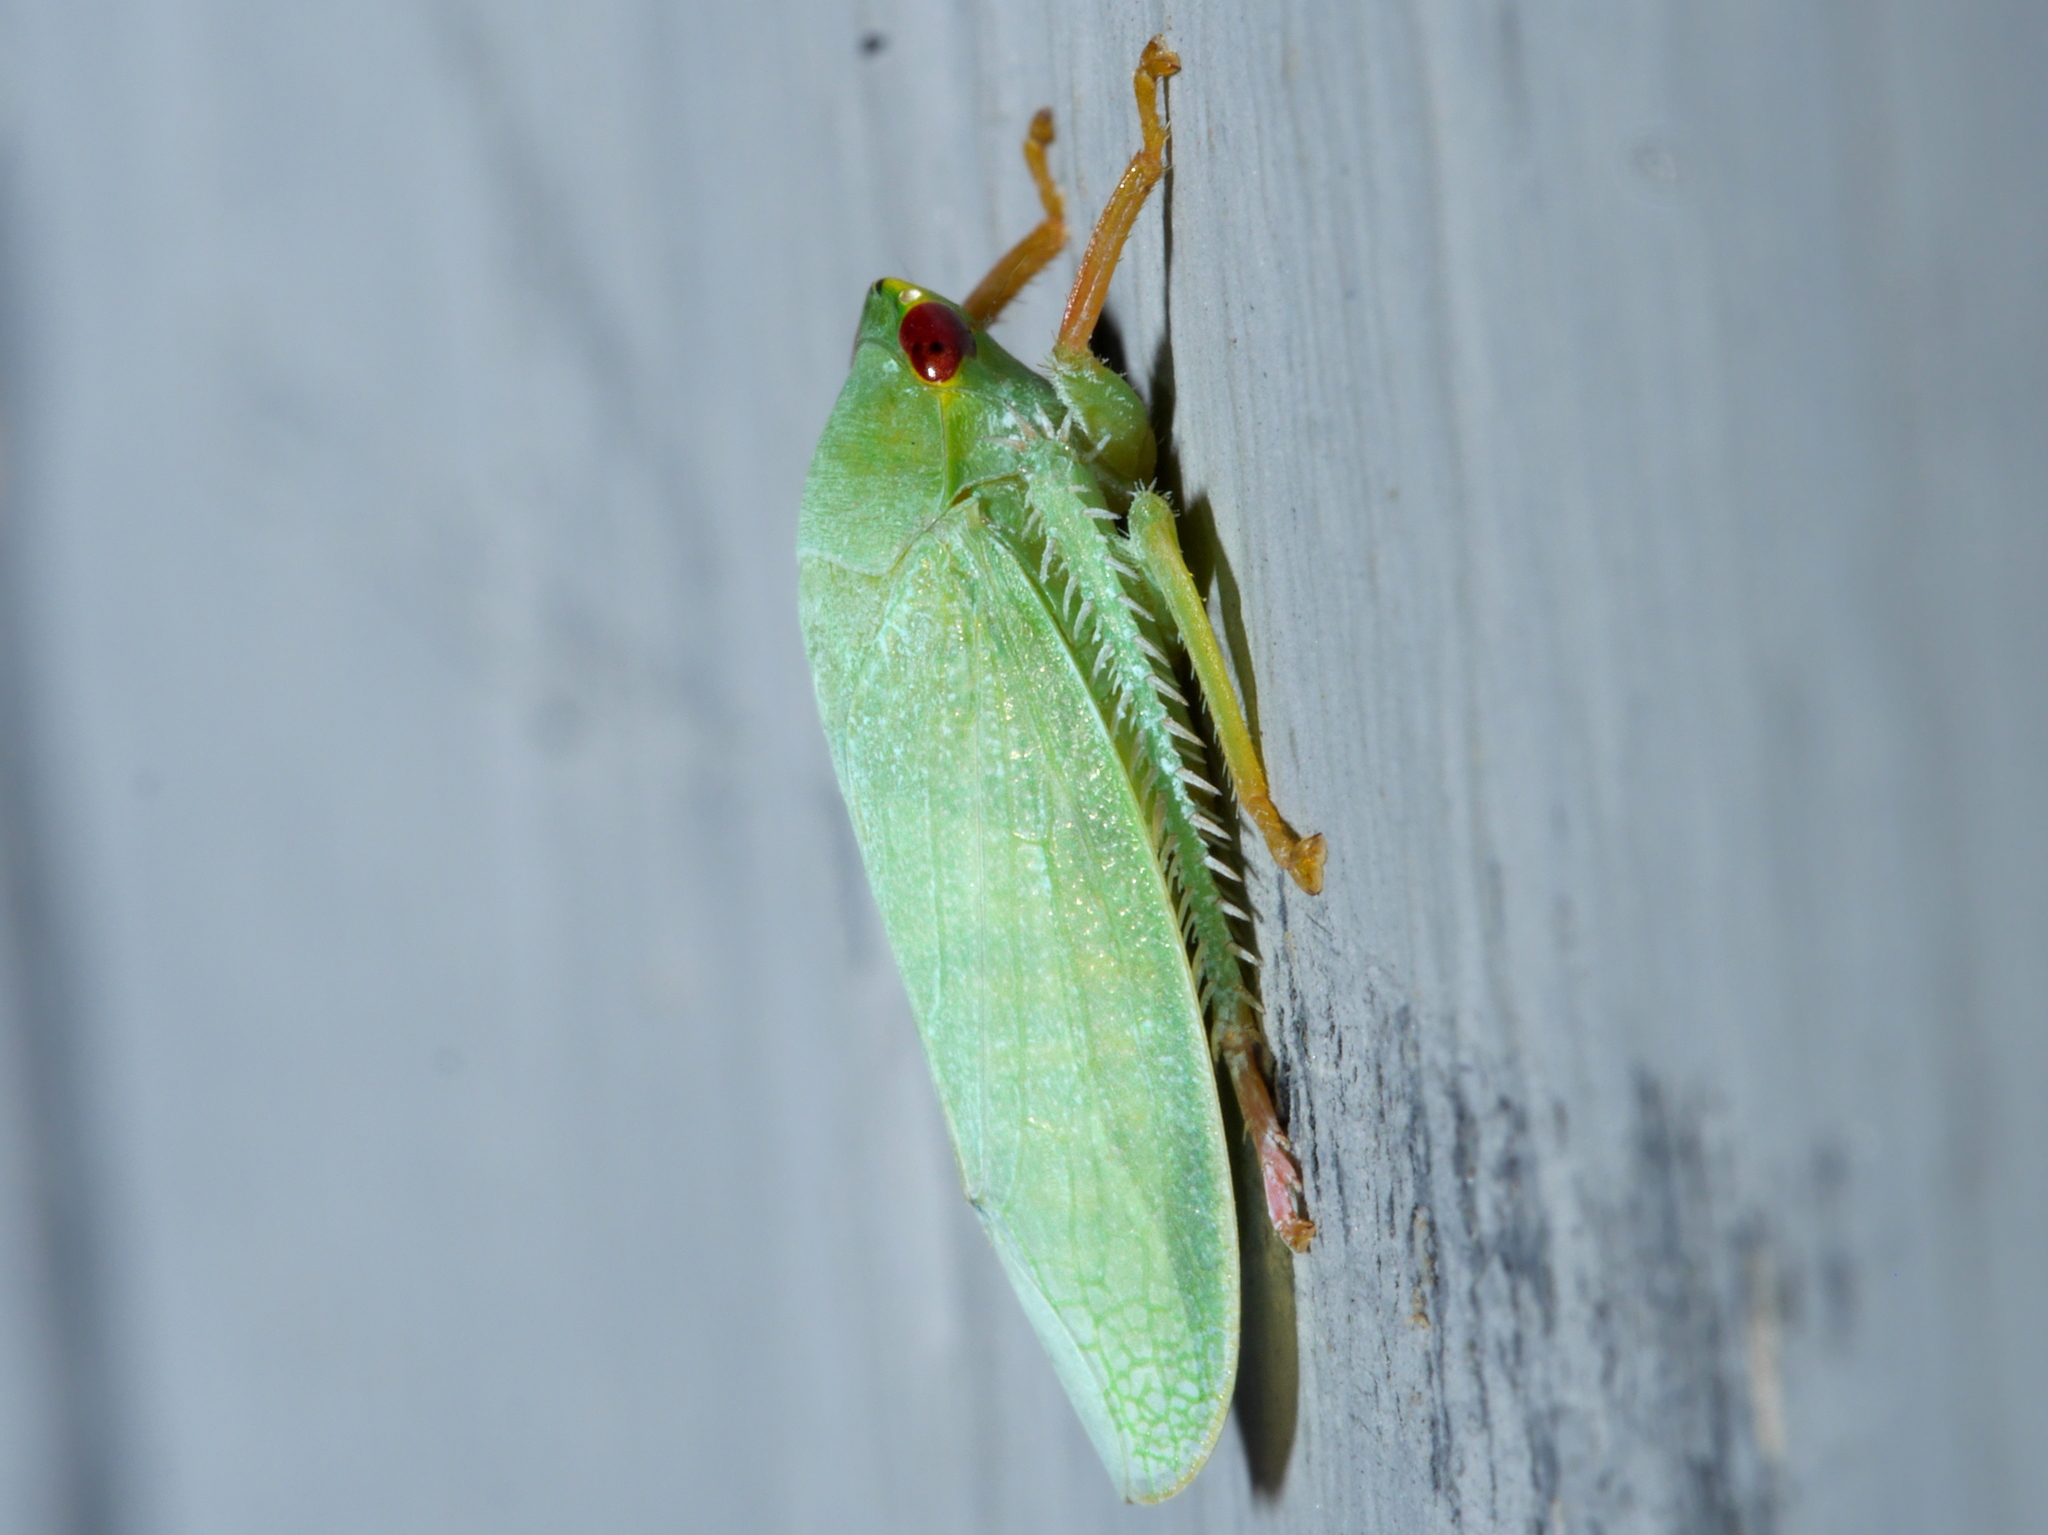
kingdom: Animalia
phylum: Arthropoda
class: Insecta
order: Hemiptera
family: Cicadellidae
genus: Krisna
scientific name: Krisna gravis
